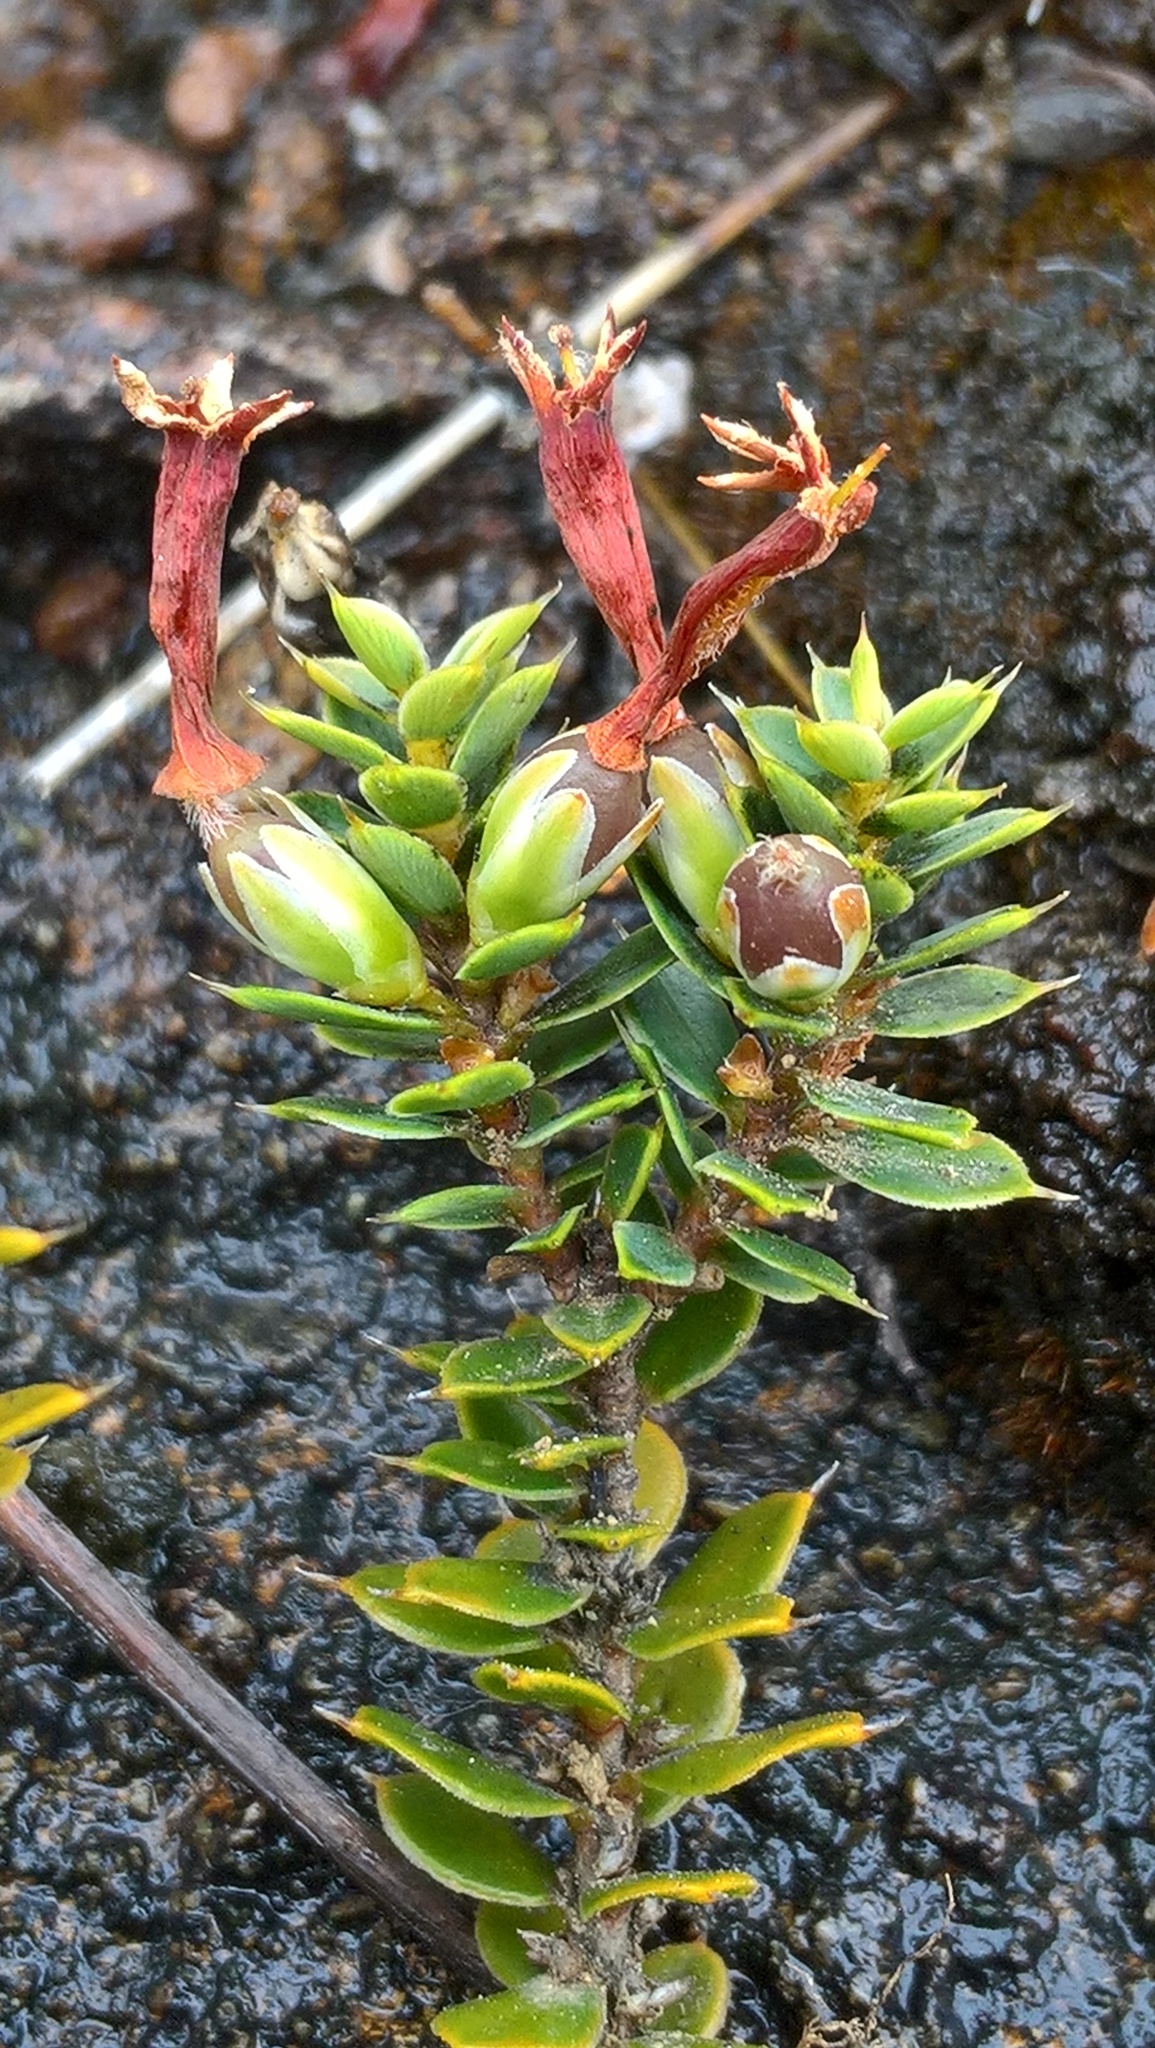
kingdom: Plantae
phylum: Tracheophyta
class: Magnoliopsida
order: Ericales
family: Ericaceae
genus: Styphelia
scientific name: Styphelia nesophila
